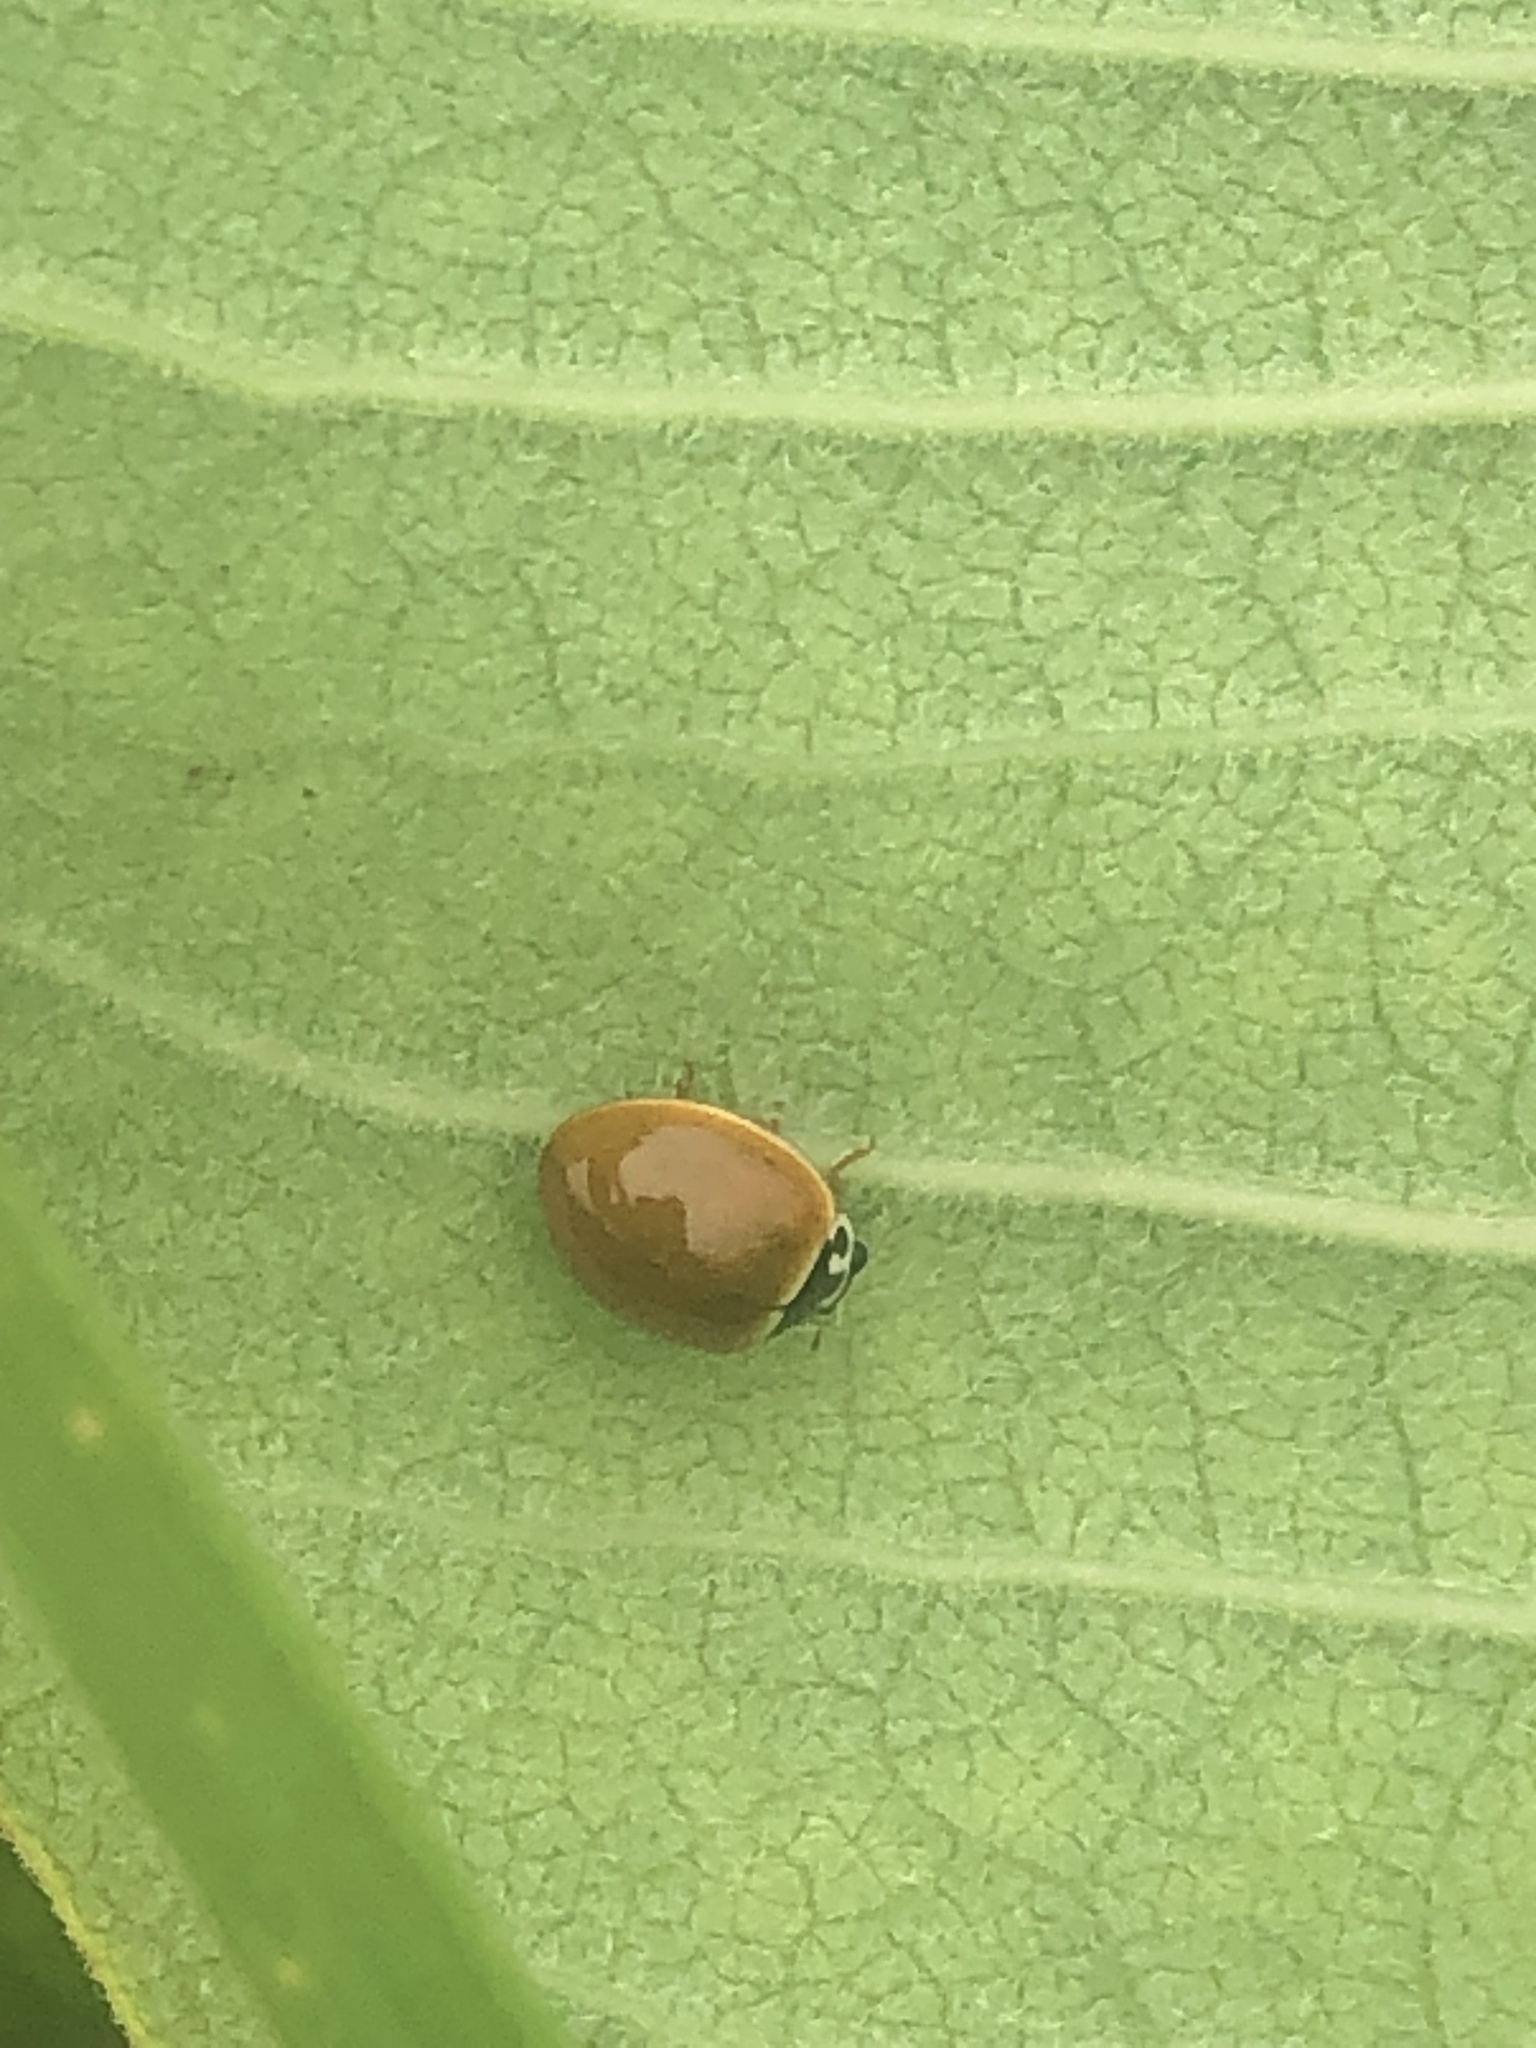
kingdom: Animalia
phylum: Arthropoda
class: Insecta
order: Coleoptera
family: Coccinellidae
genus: Cycloneda
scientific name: Cycloneda munda
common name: Polished lady beetle
